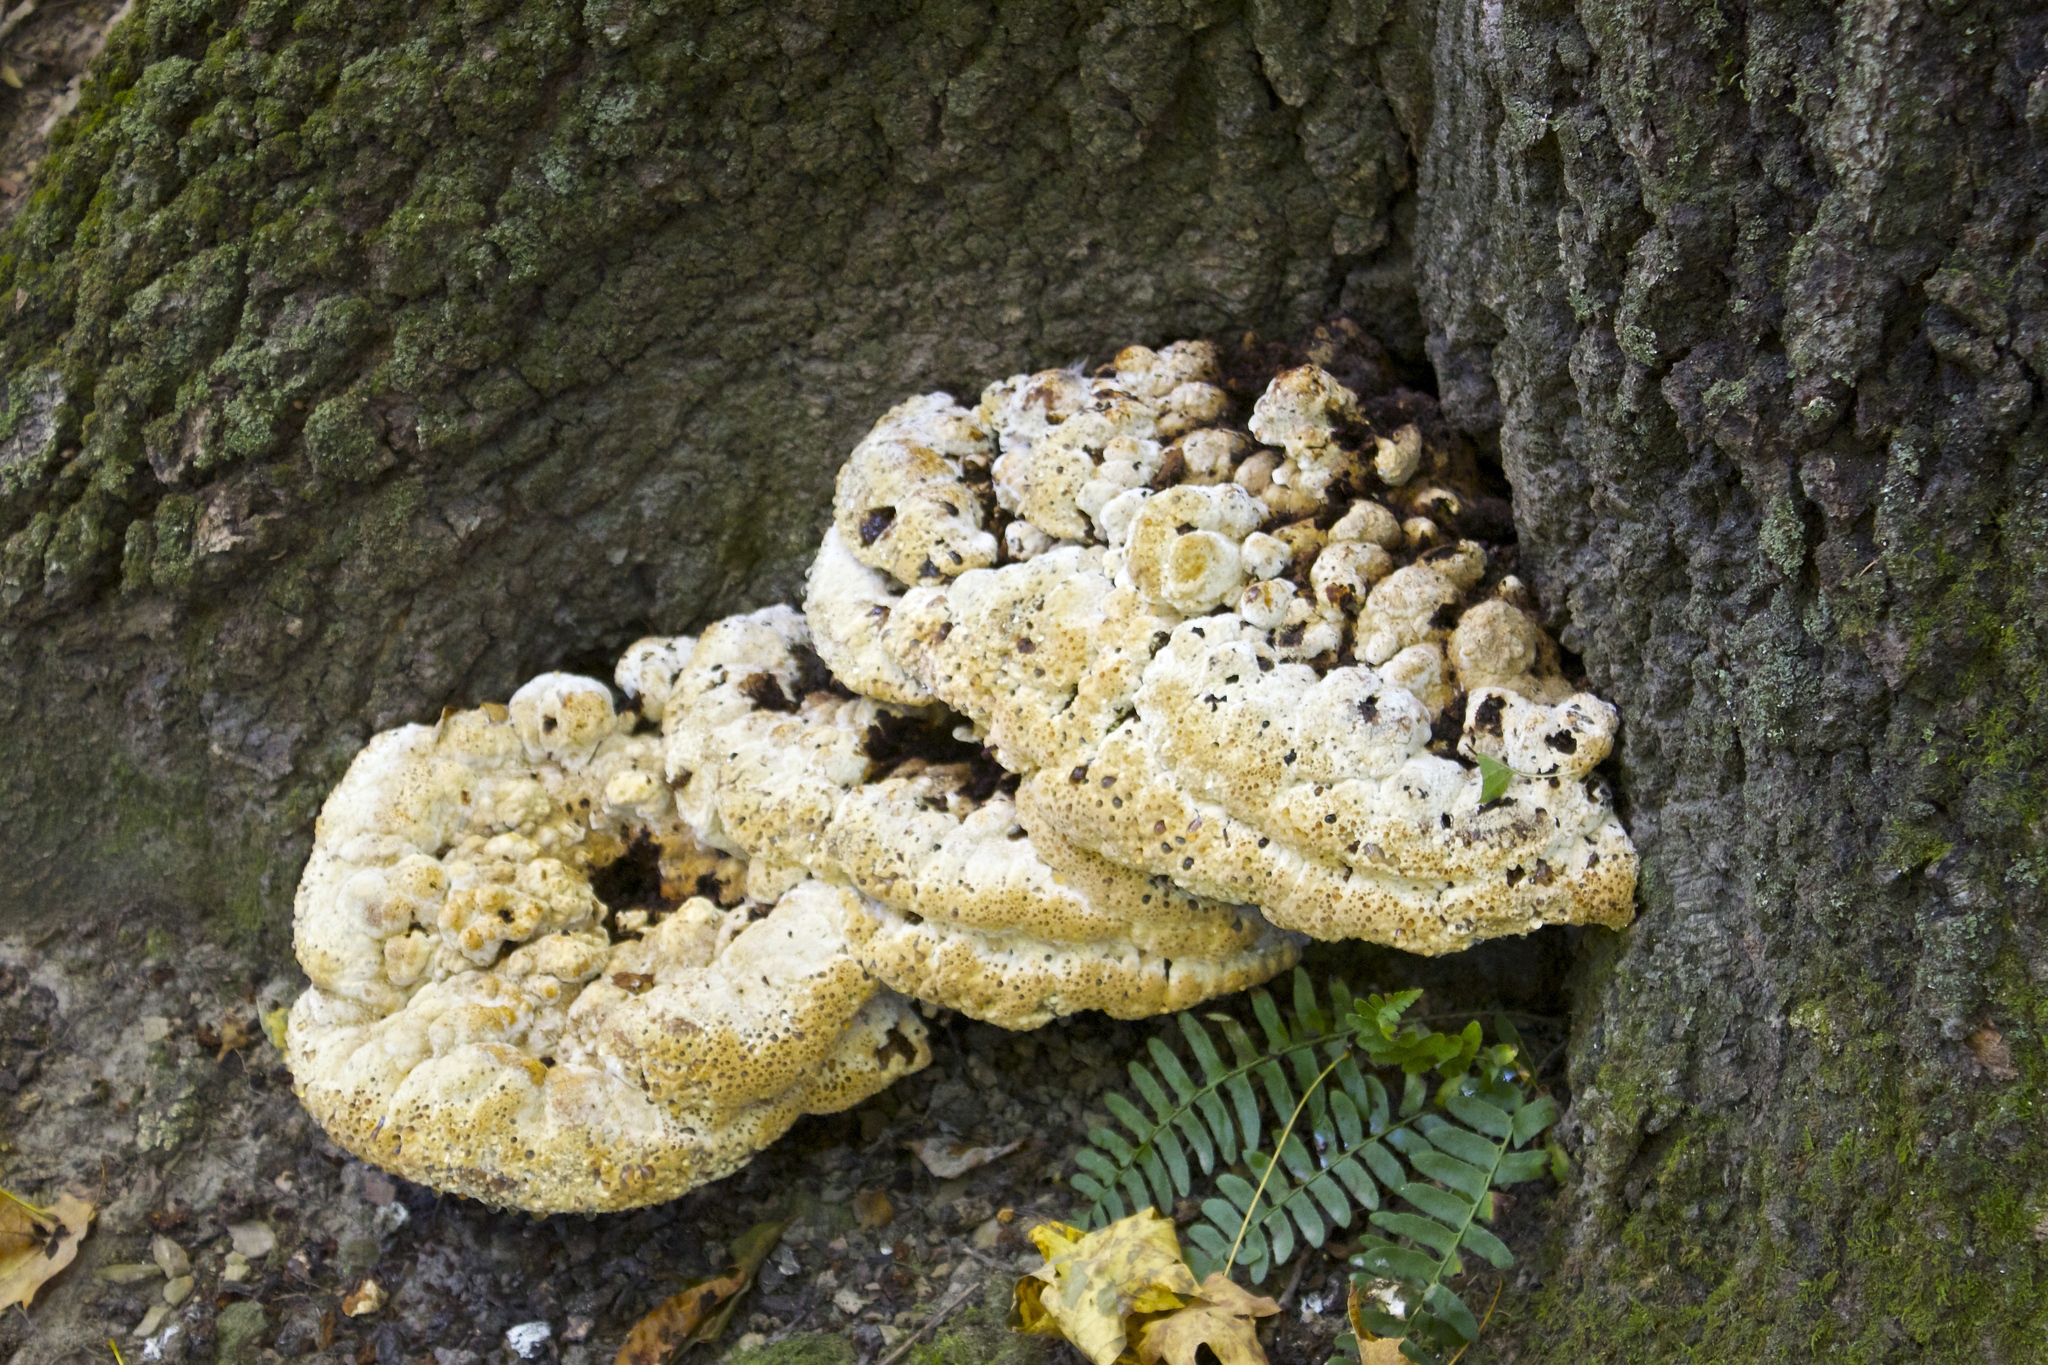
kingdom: Fungi
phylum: Basidiomycota
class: Agaricomycetes
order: Hymenochaetales
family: Hymenochaetaceae
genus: Pseudoinonotus
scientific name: Pseudoinonotus dryadeus
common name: Oak bracket
